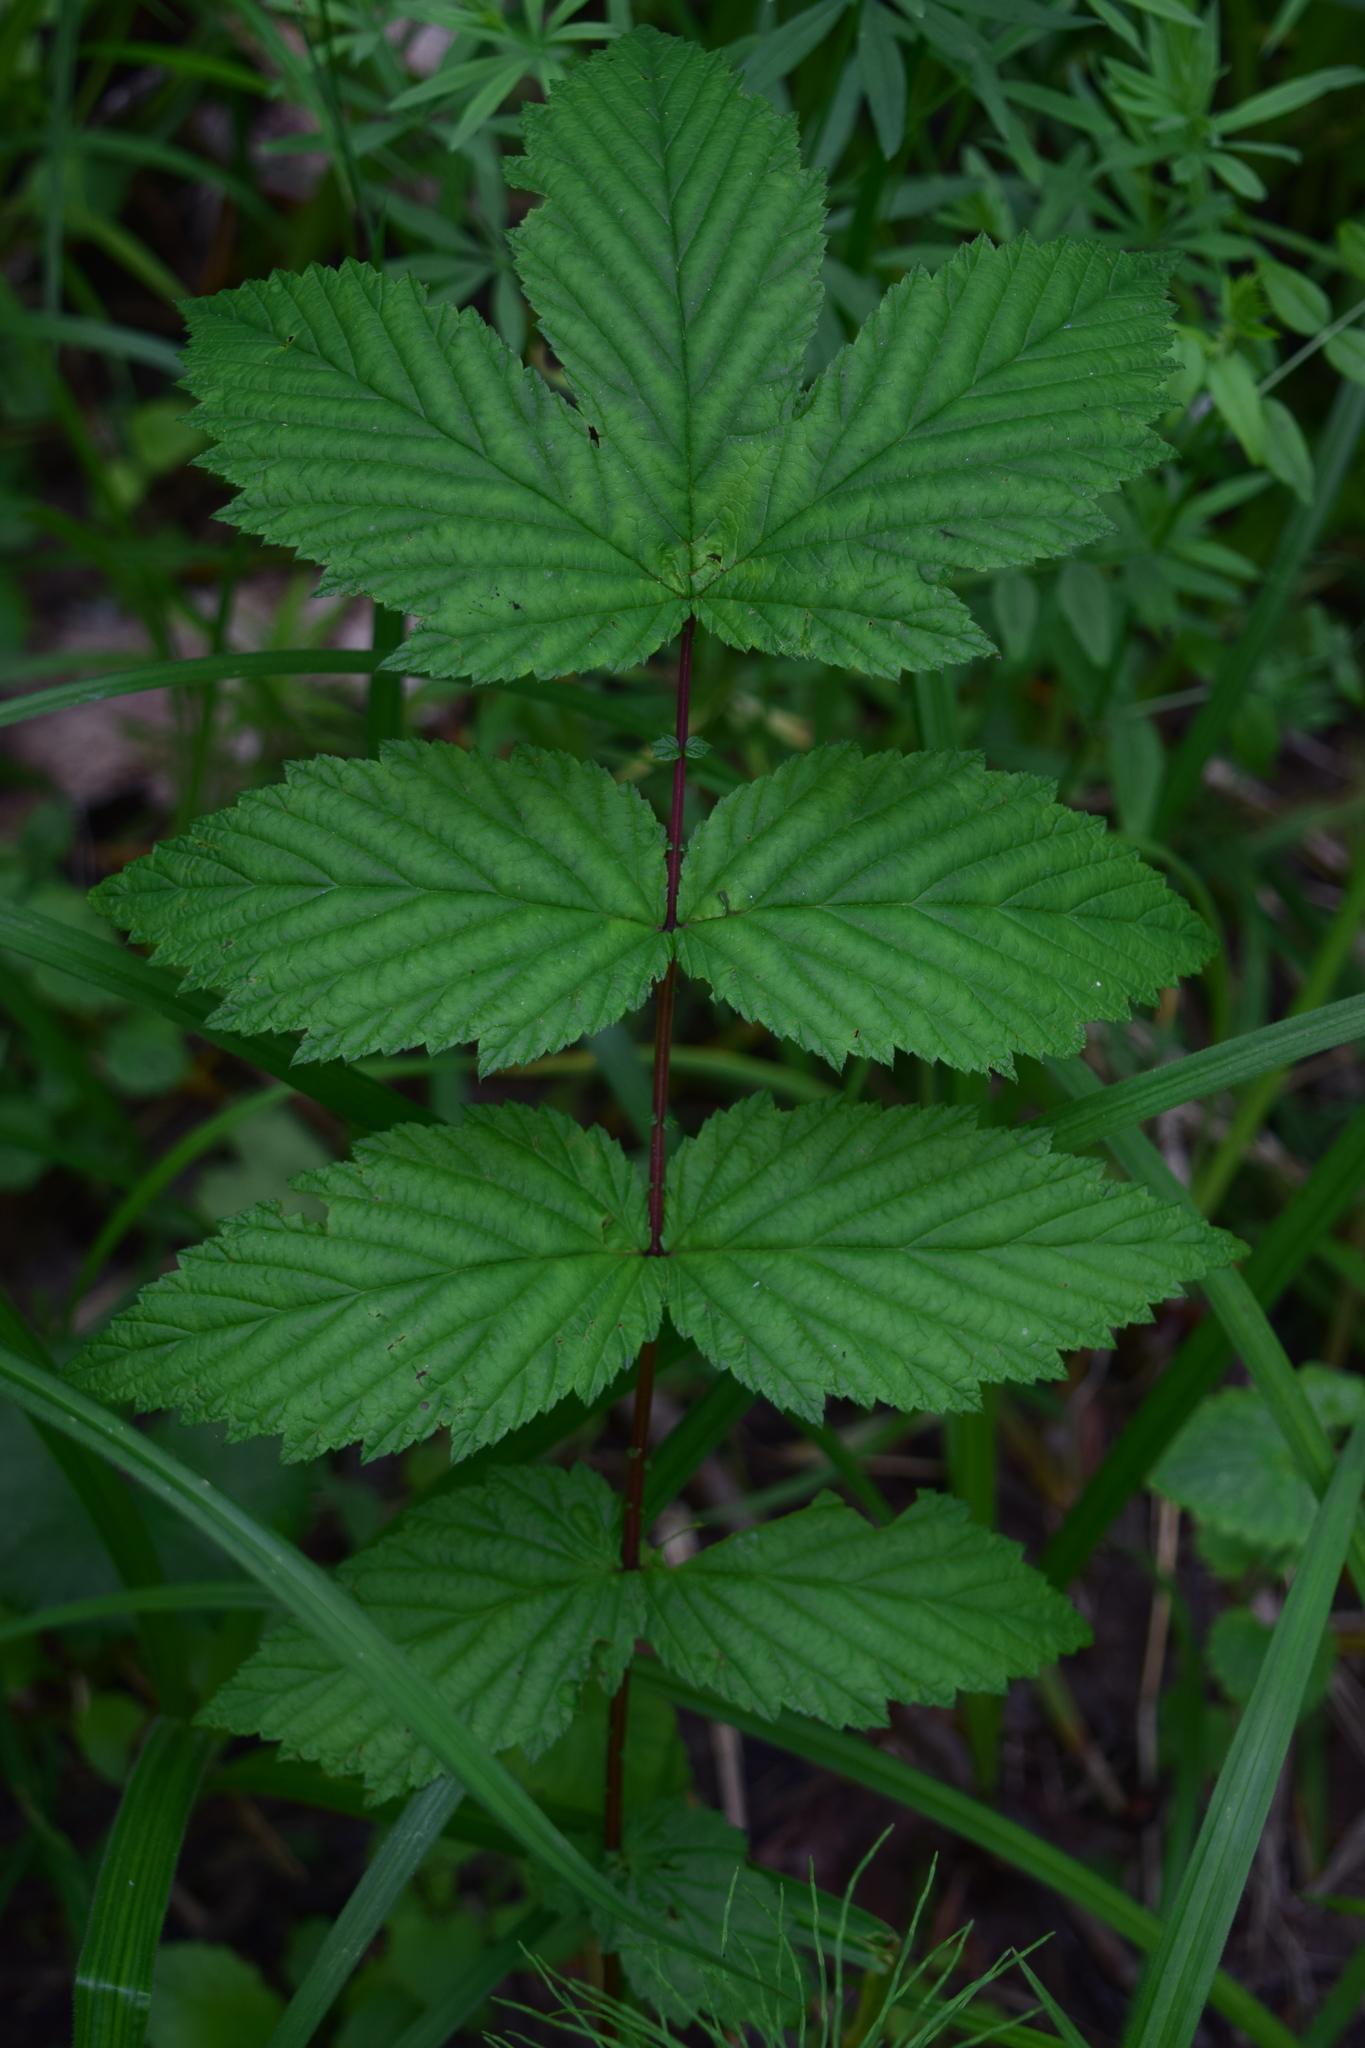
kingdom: Plantae
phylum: Tracheophyta
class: Magnoliopsida
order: Rosales
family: Rosaceae
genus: Filipendula
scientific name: Filipendula ulmaria
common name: Meadowsweet
